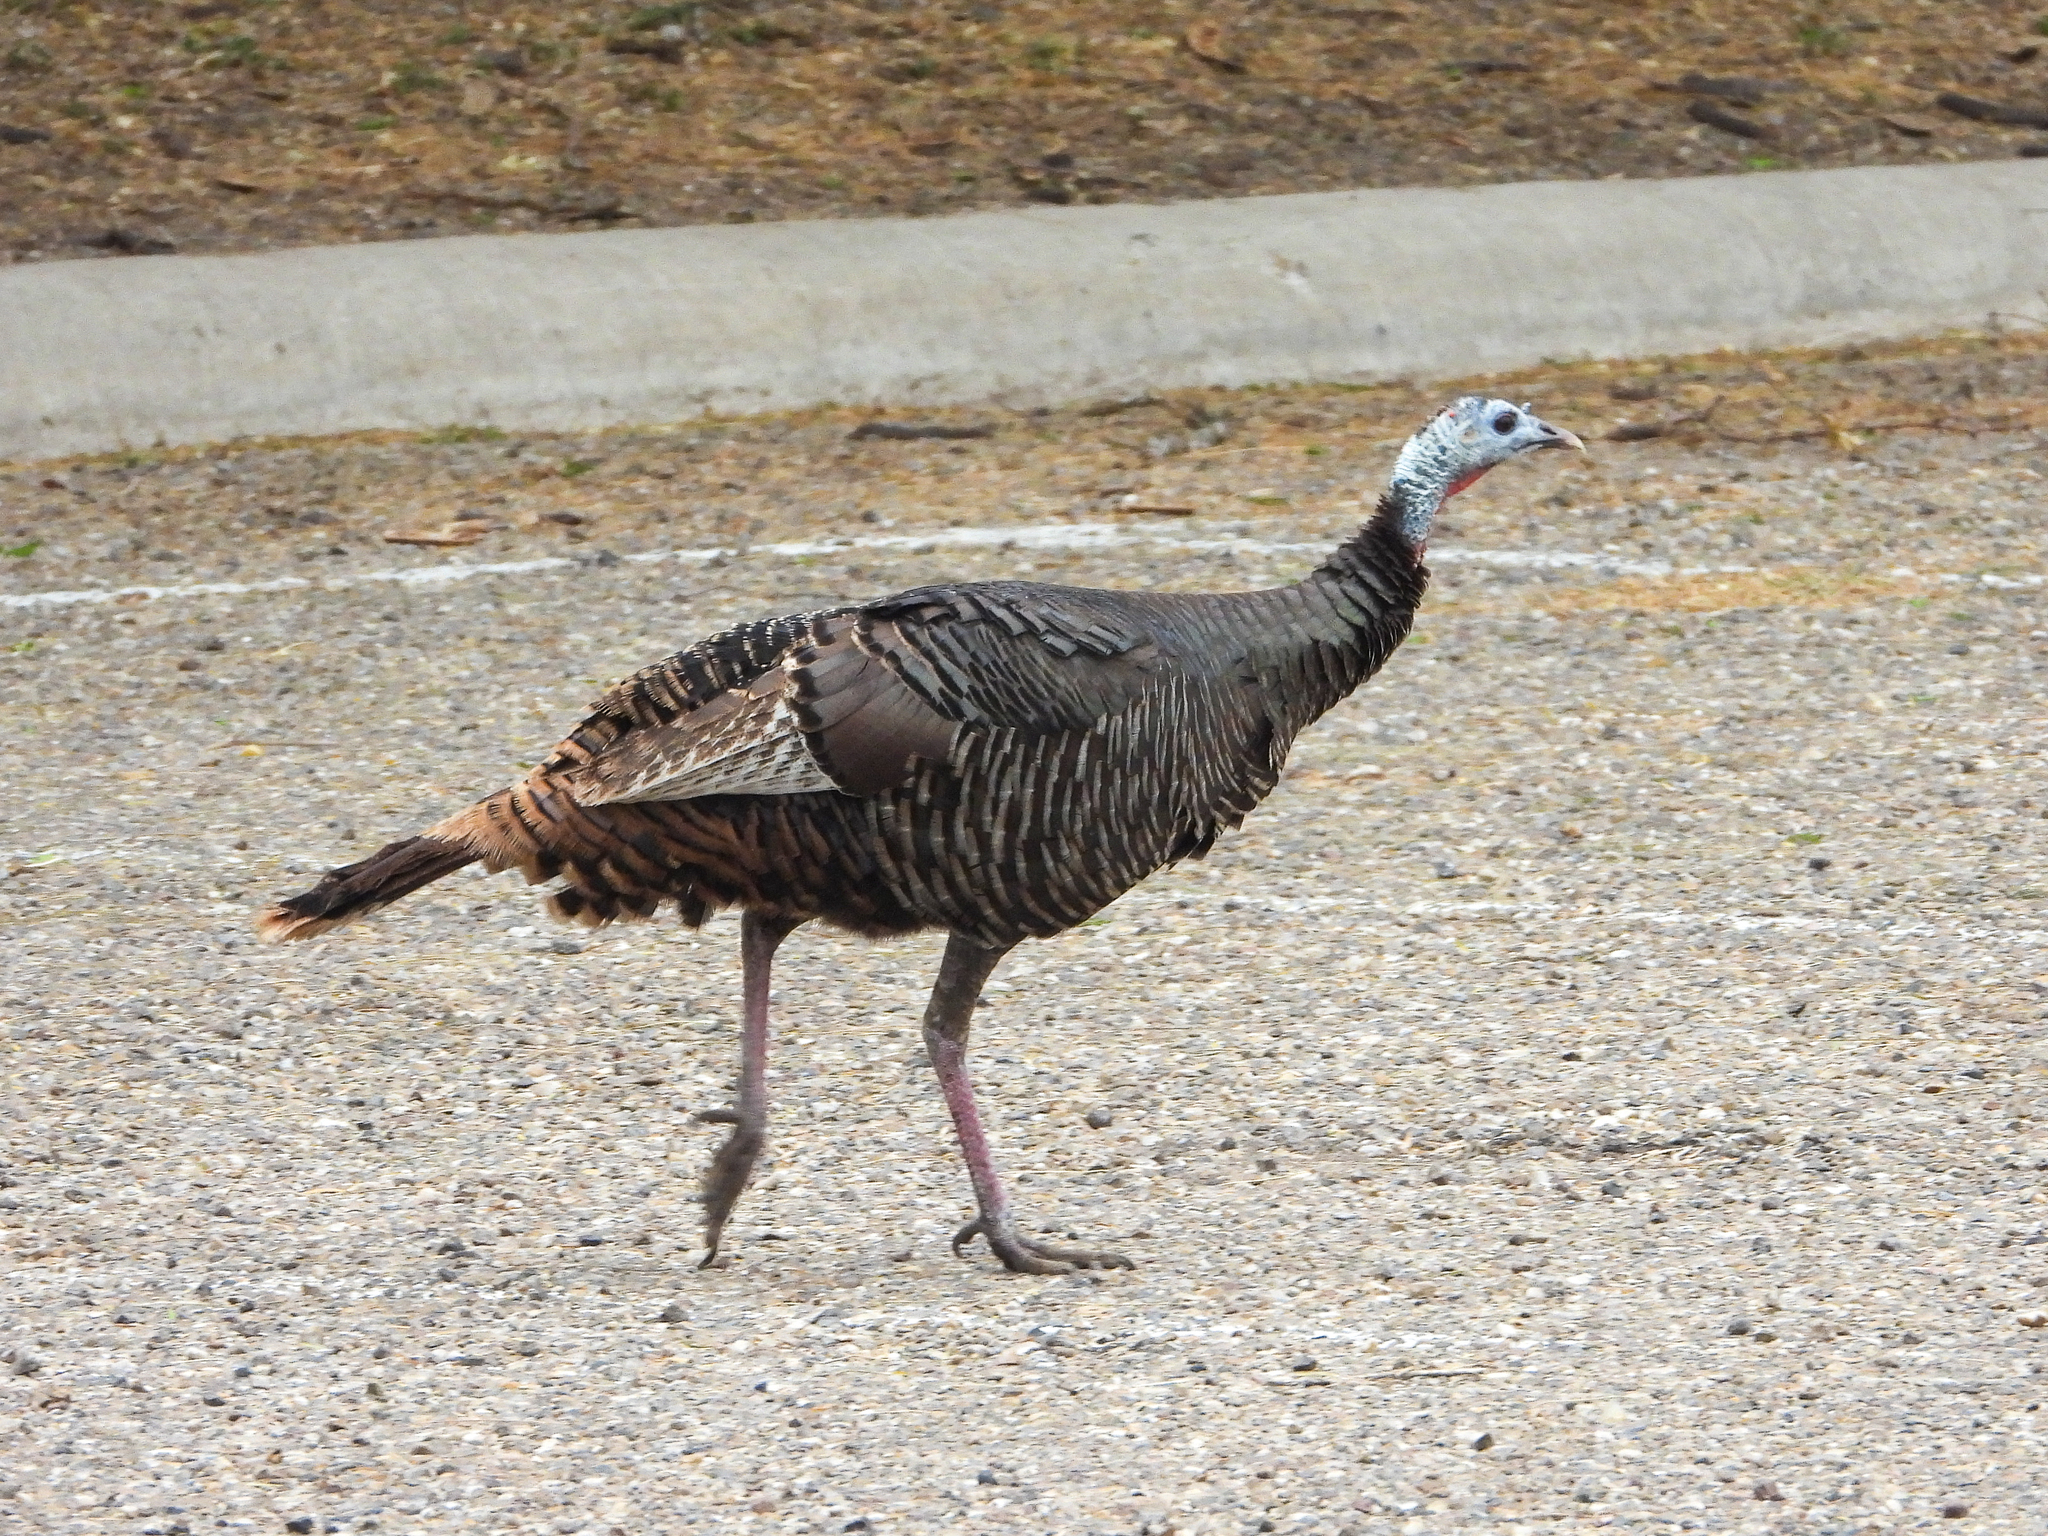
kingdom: Animalia
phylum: Chordata
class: Aves
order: Galliformes
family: Phasianidae
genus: Meleagris
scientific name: Meleagris gallopavo
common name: Wild turkey
